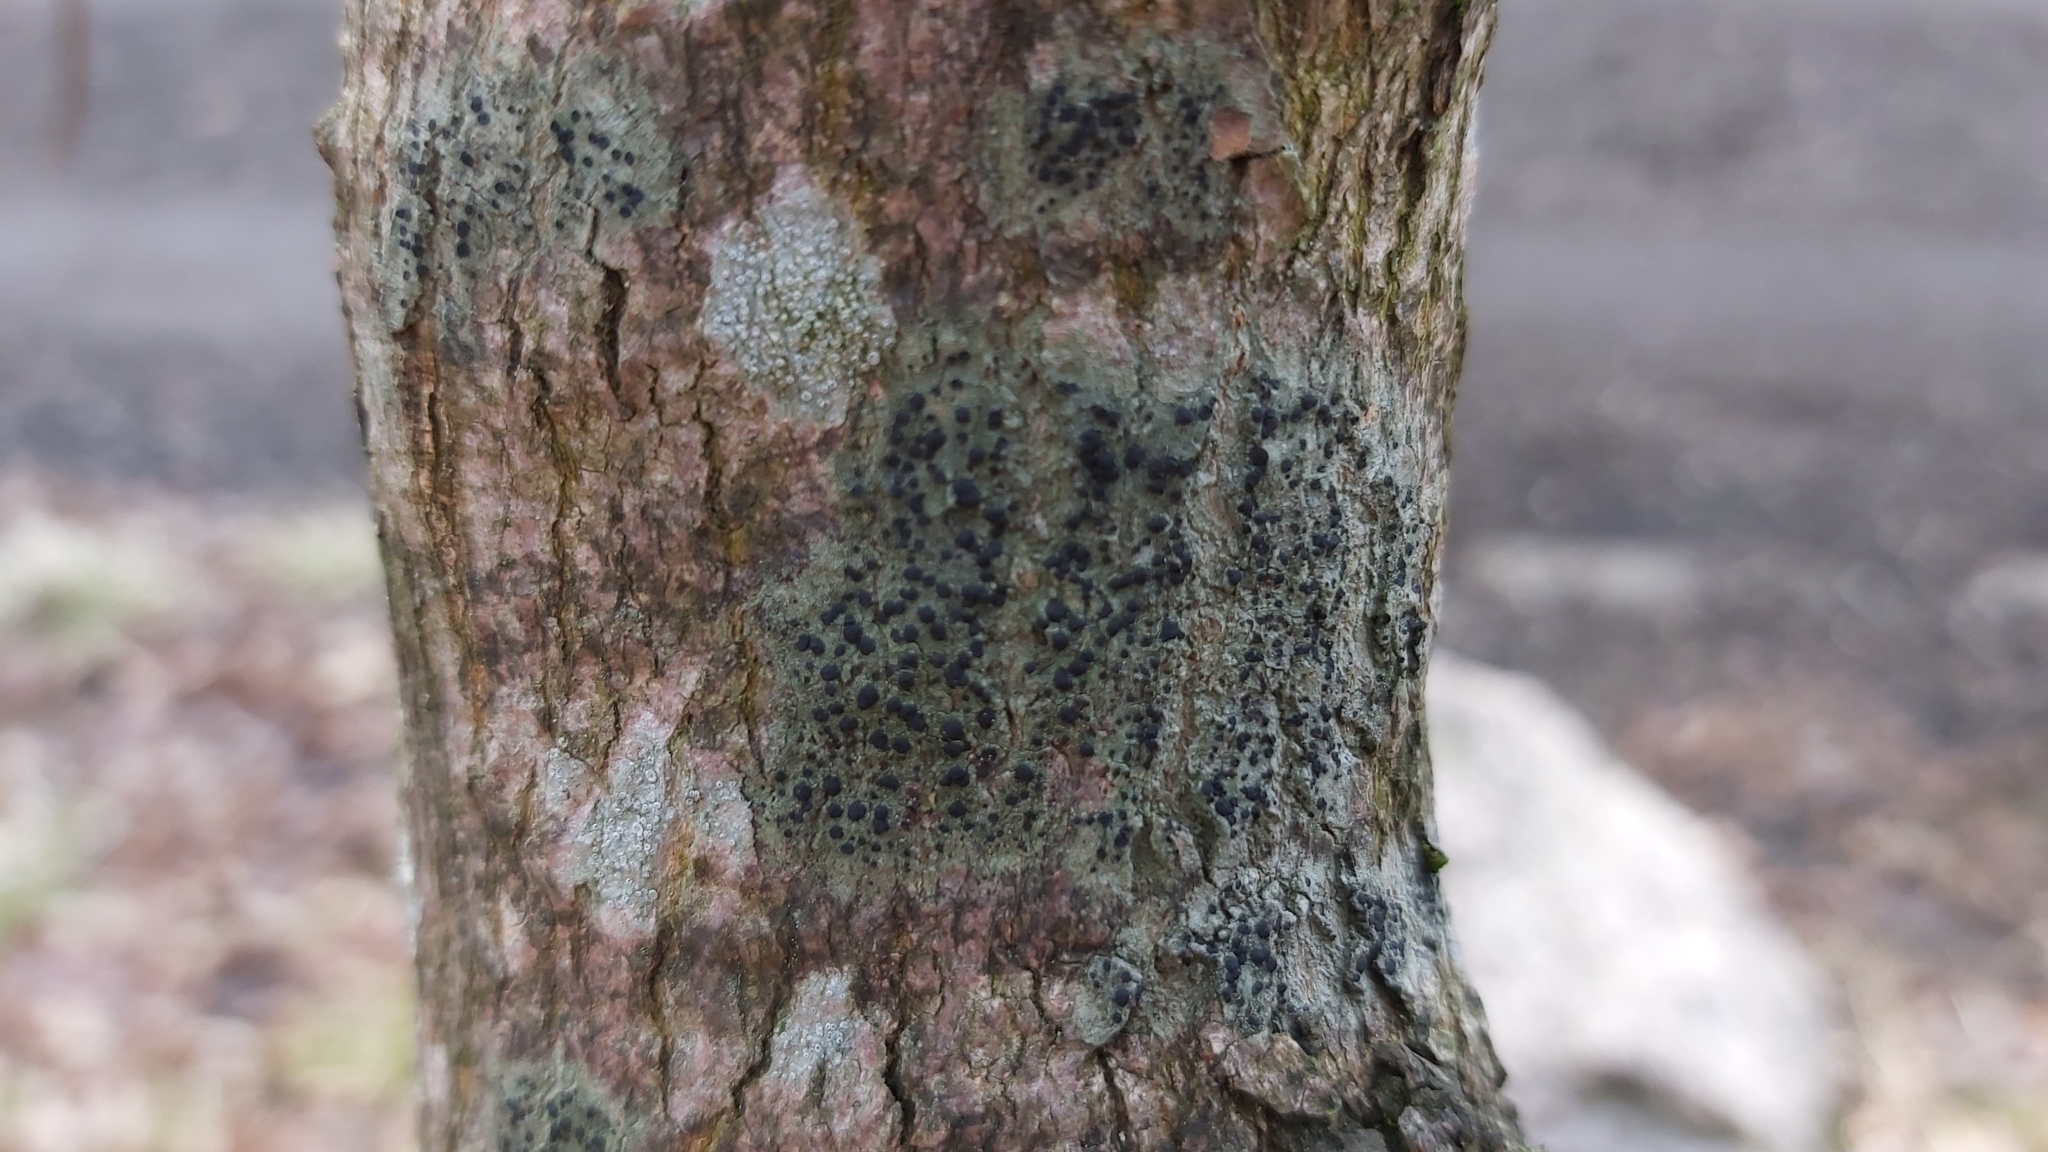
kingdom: Fungi
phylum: Ascomycota
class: Lecanoromycetes
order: Lecanorales
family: Lecanoraceae
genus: Lecidella
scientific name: Lecidella elaeochroma
